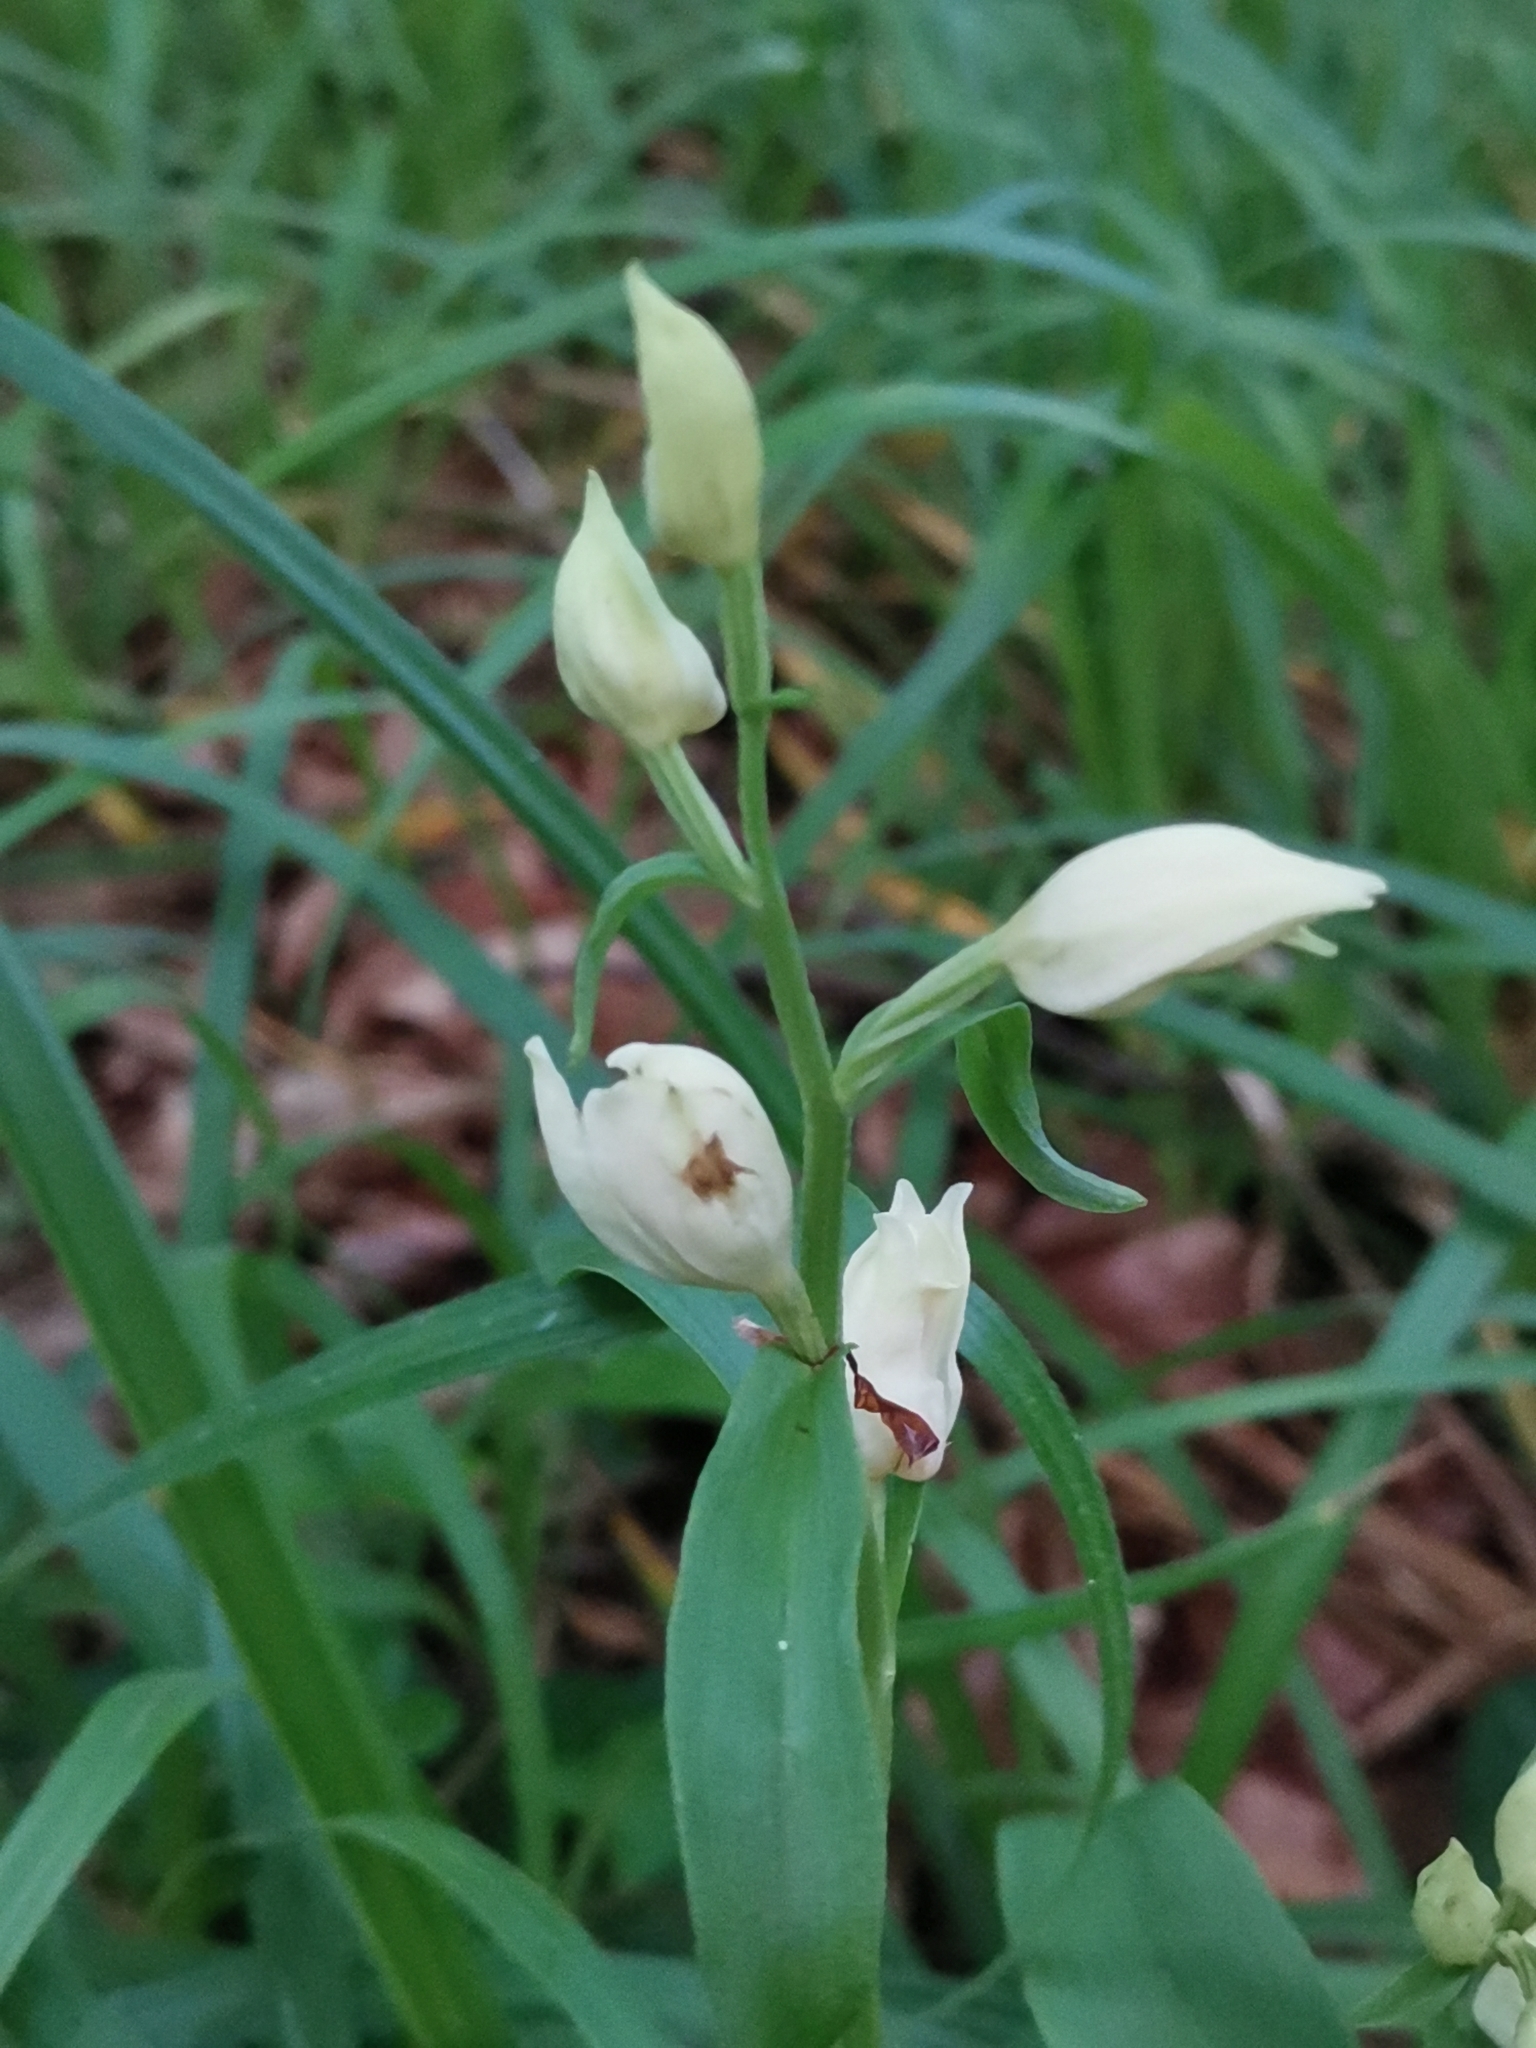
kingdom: Plantae
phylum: Tracheophyta
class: Liliopsida
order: Asparagales
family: Orchidaceae
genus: Cephalanthera
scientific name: Cephalanthera damasonium
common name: White helleborine
